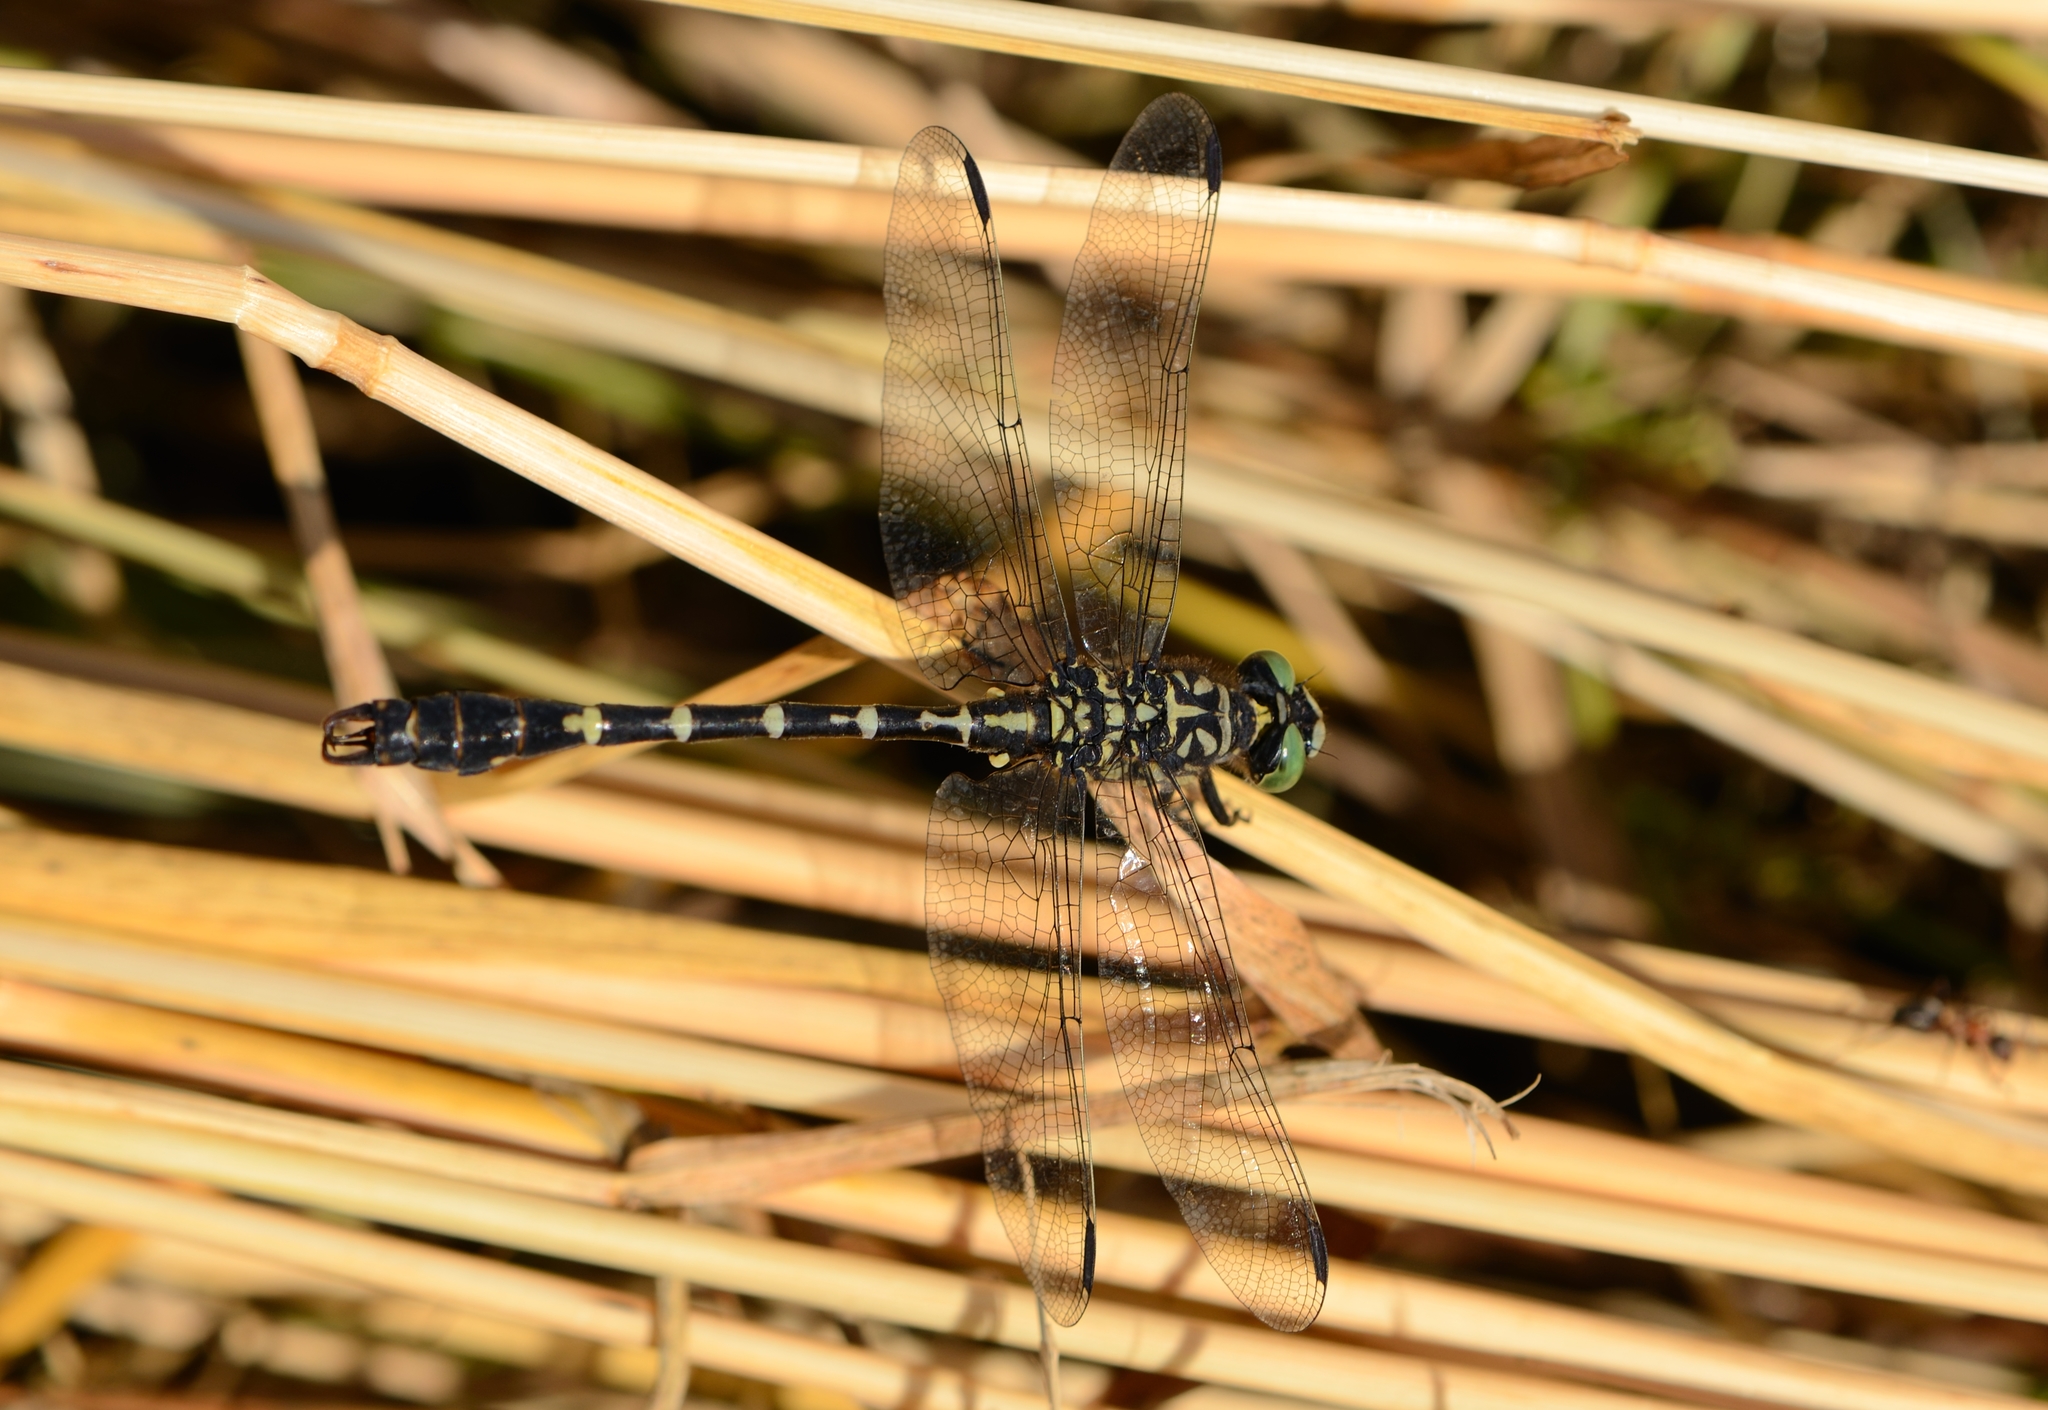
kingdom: Animalia
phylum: Arthropoda
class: Insecta
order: Odonata
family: Gomphidae
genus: Onychogomphus
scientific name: Onychogomphus forcipatus
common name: Small pincertail
